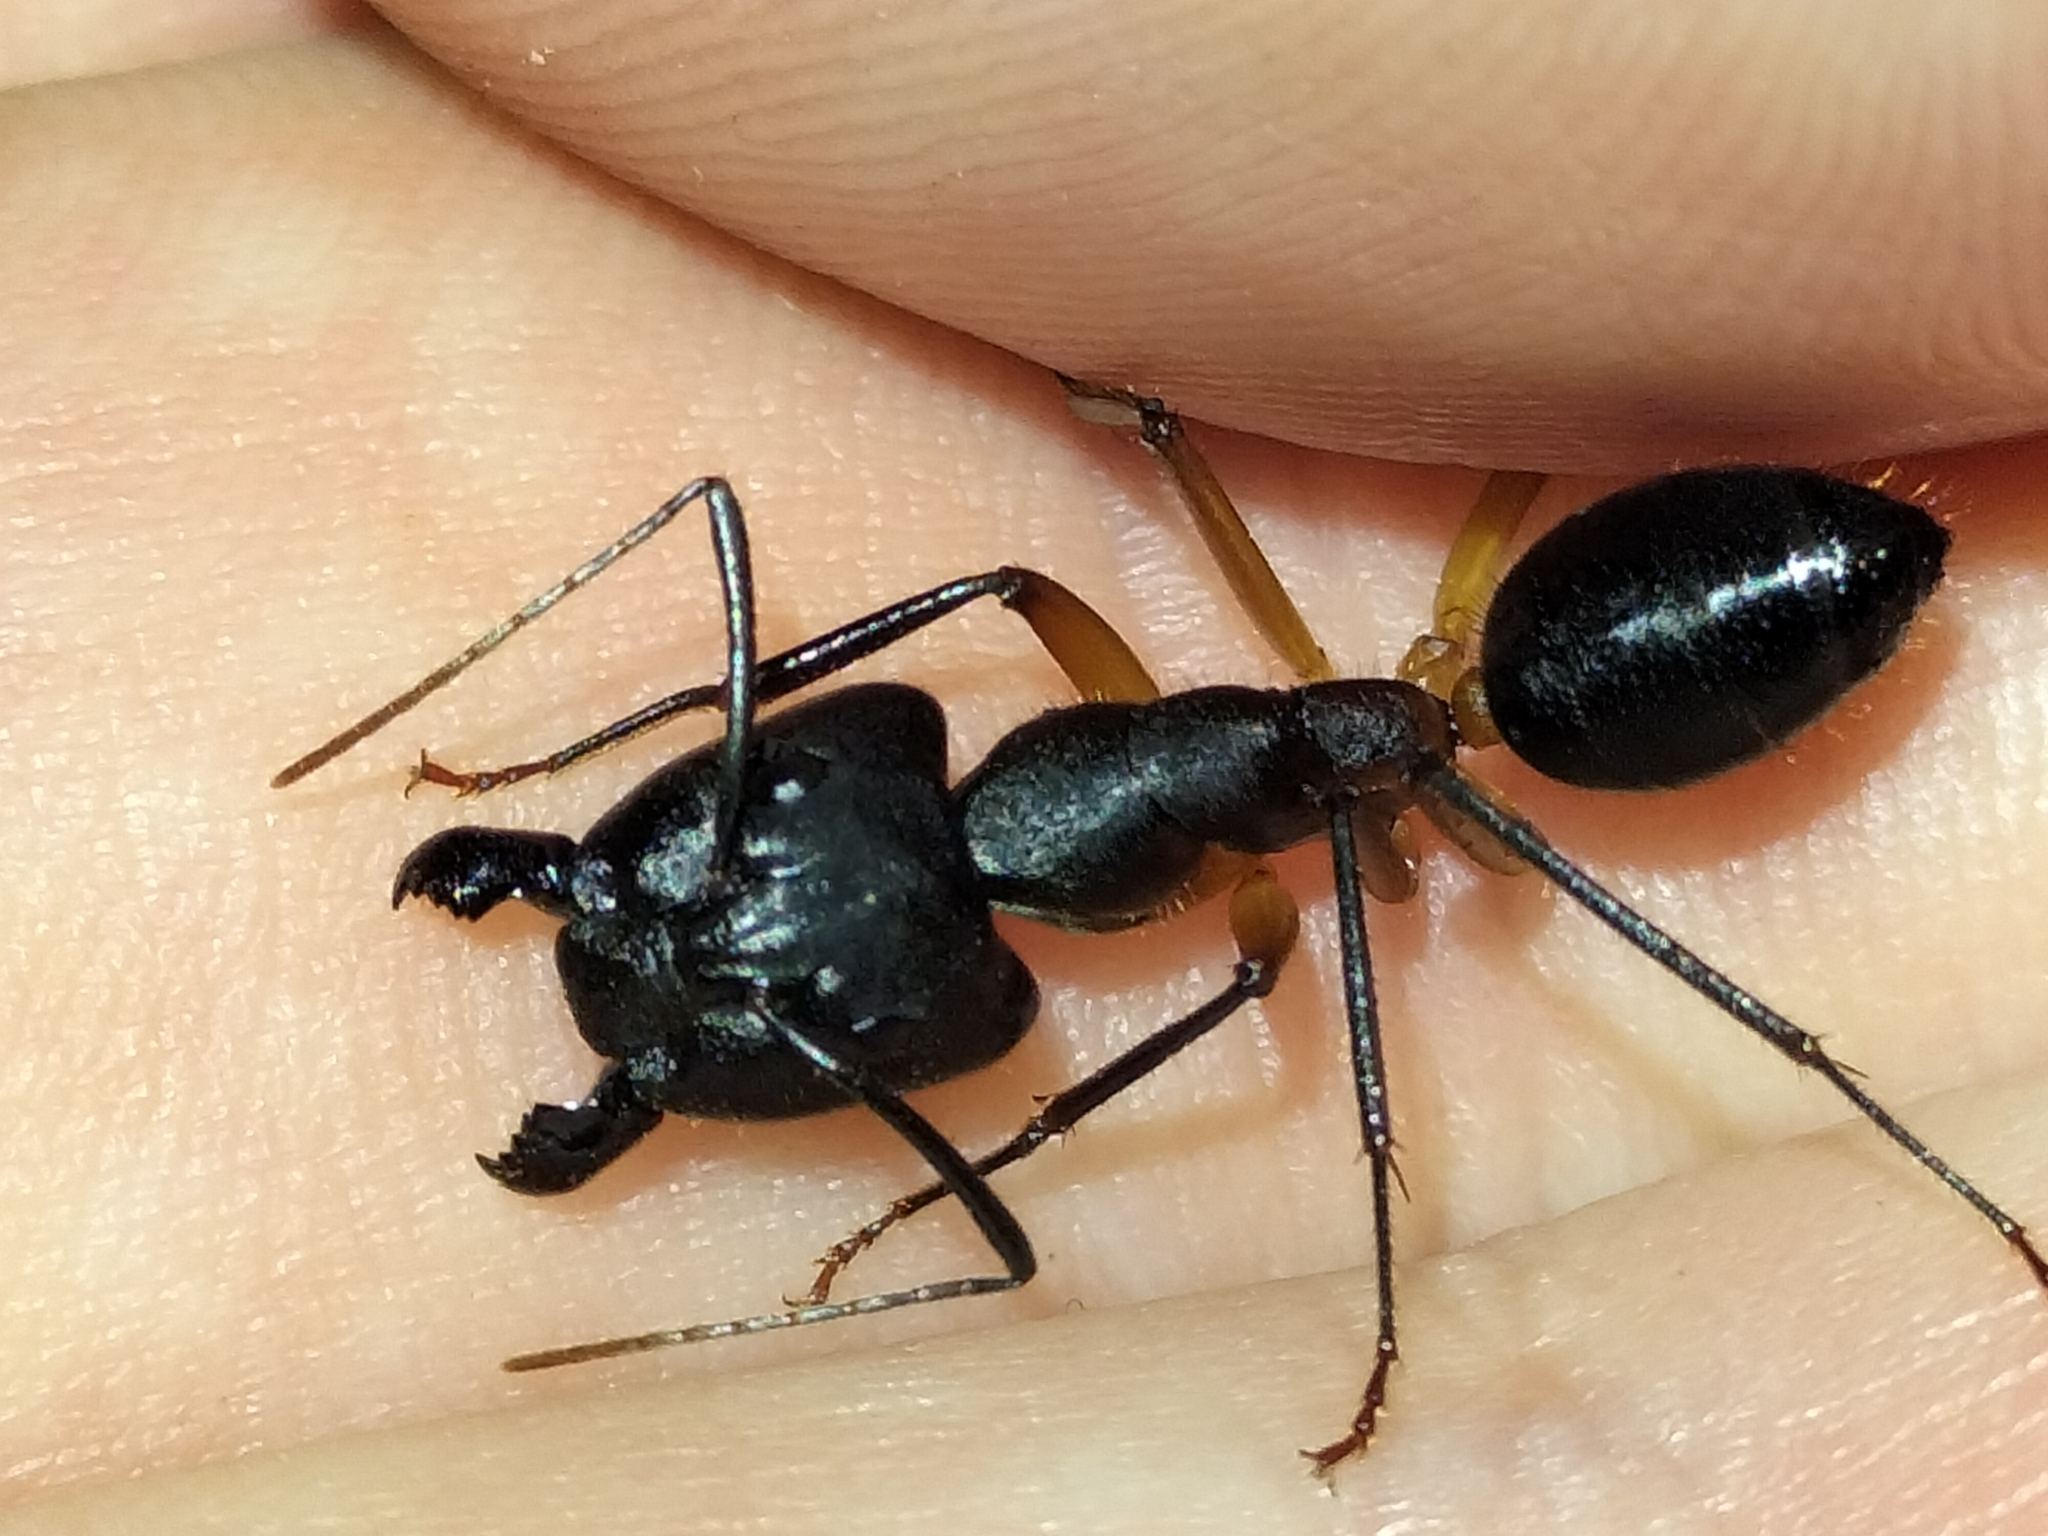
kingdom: Animalia
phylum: Arthropoda
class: Insecta
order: Hymenoptera
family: Formicidae
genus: Camponotus
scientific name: Camponotus
